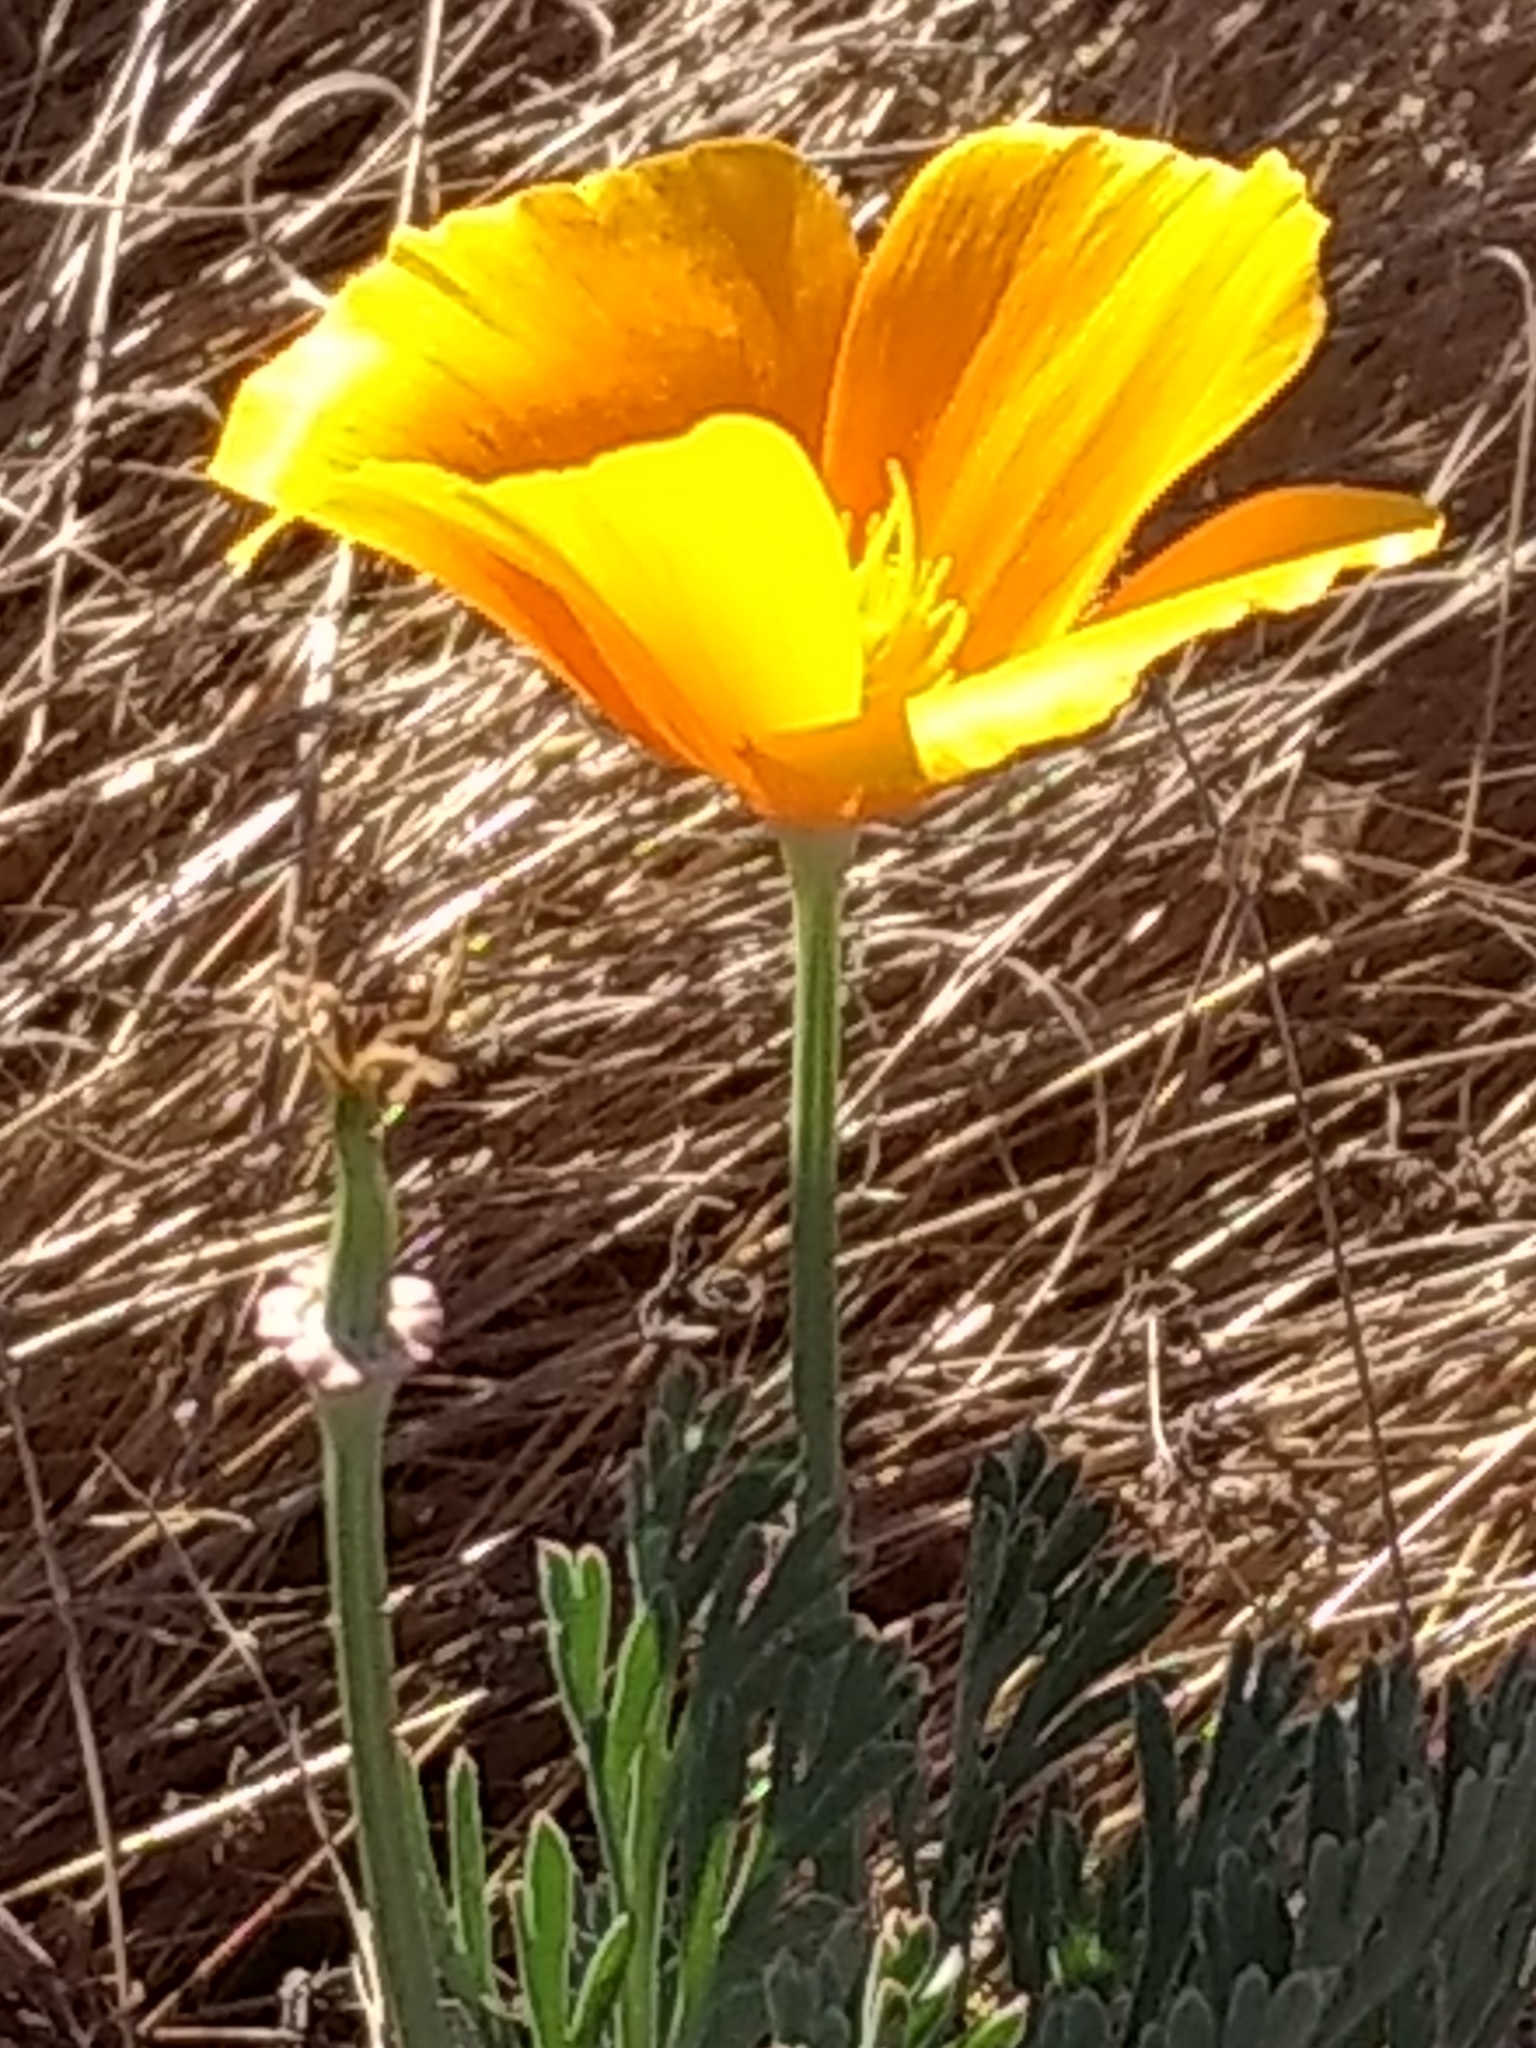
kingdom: Plantae
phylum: Tracheophyta
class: Magnoliopsida
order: Ranunculales
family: Papaveraceae
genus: Eschscholzia
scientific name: Eschscholzia californica
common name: California poppy
